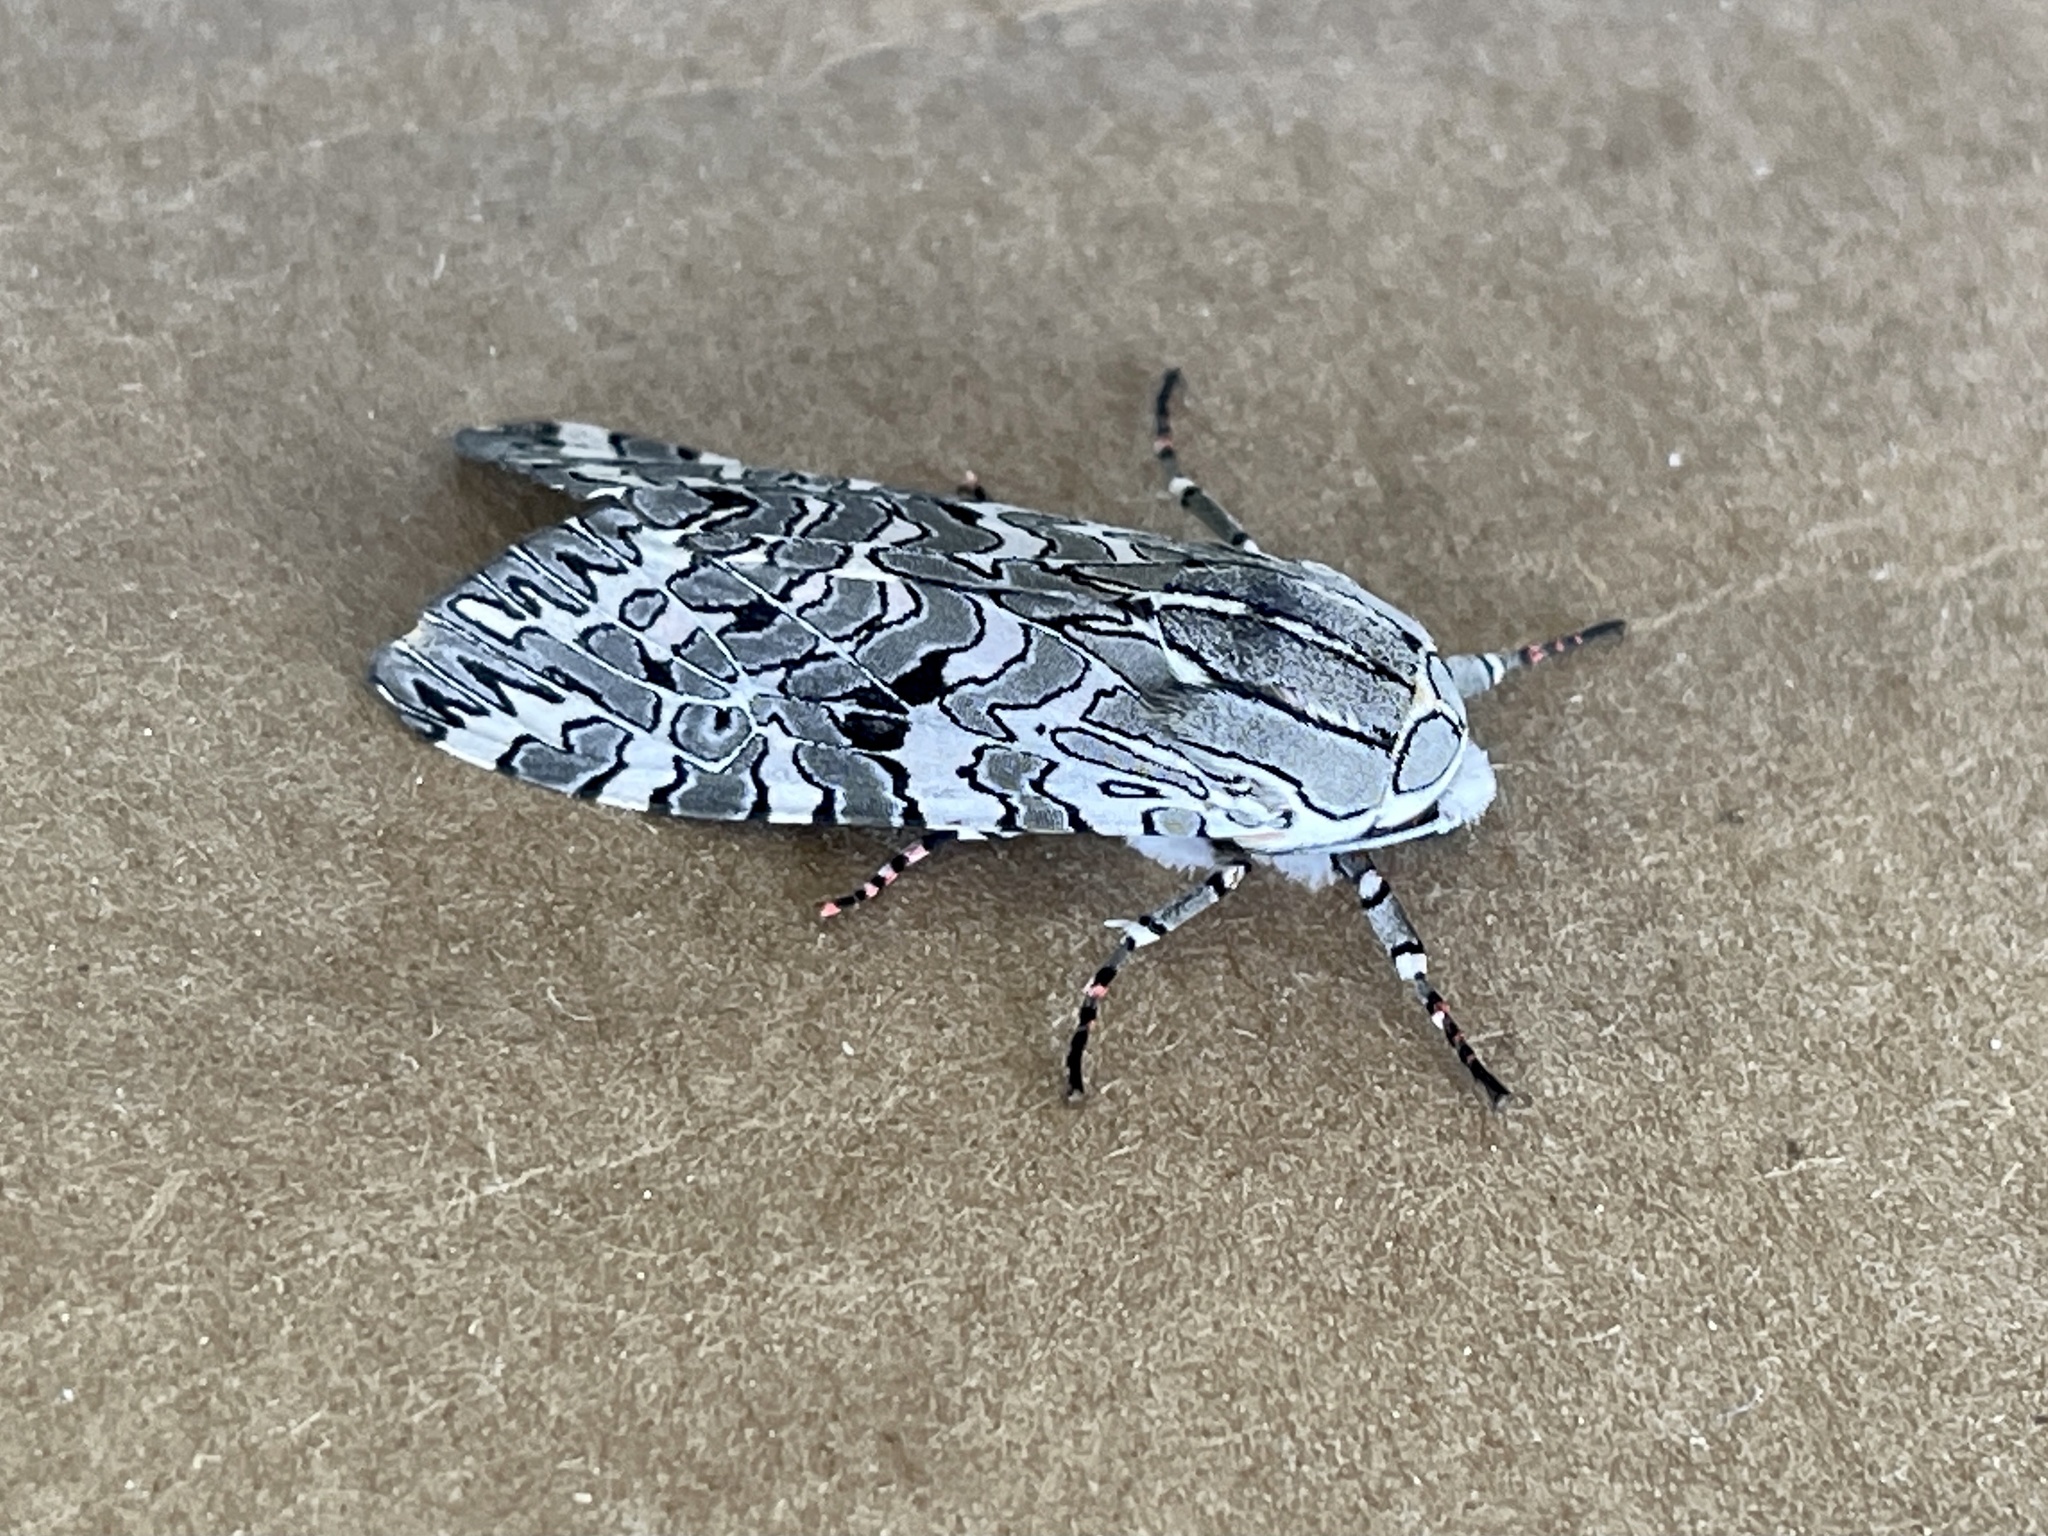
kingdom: Animalia
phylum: Arthropoda
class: Insecta
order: Lepidoptera
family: Erebidae
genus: Arachnis
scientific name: Arachnis picta
